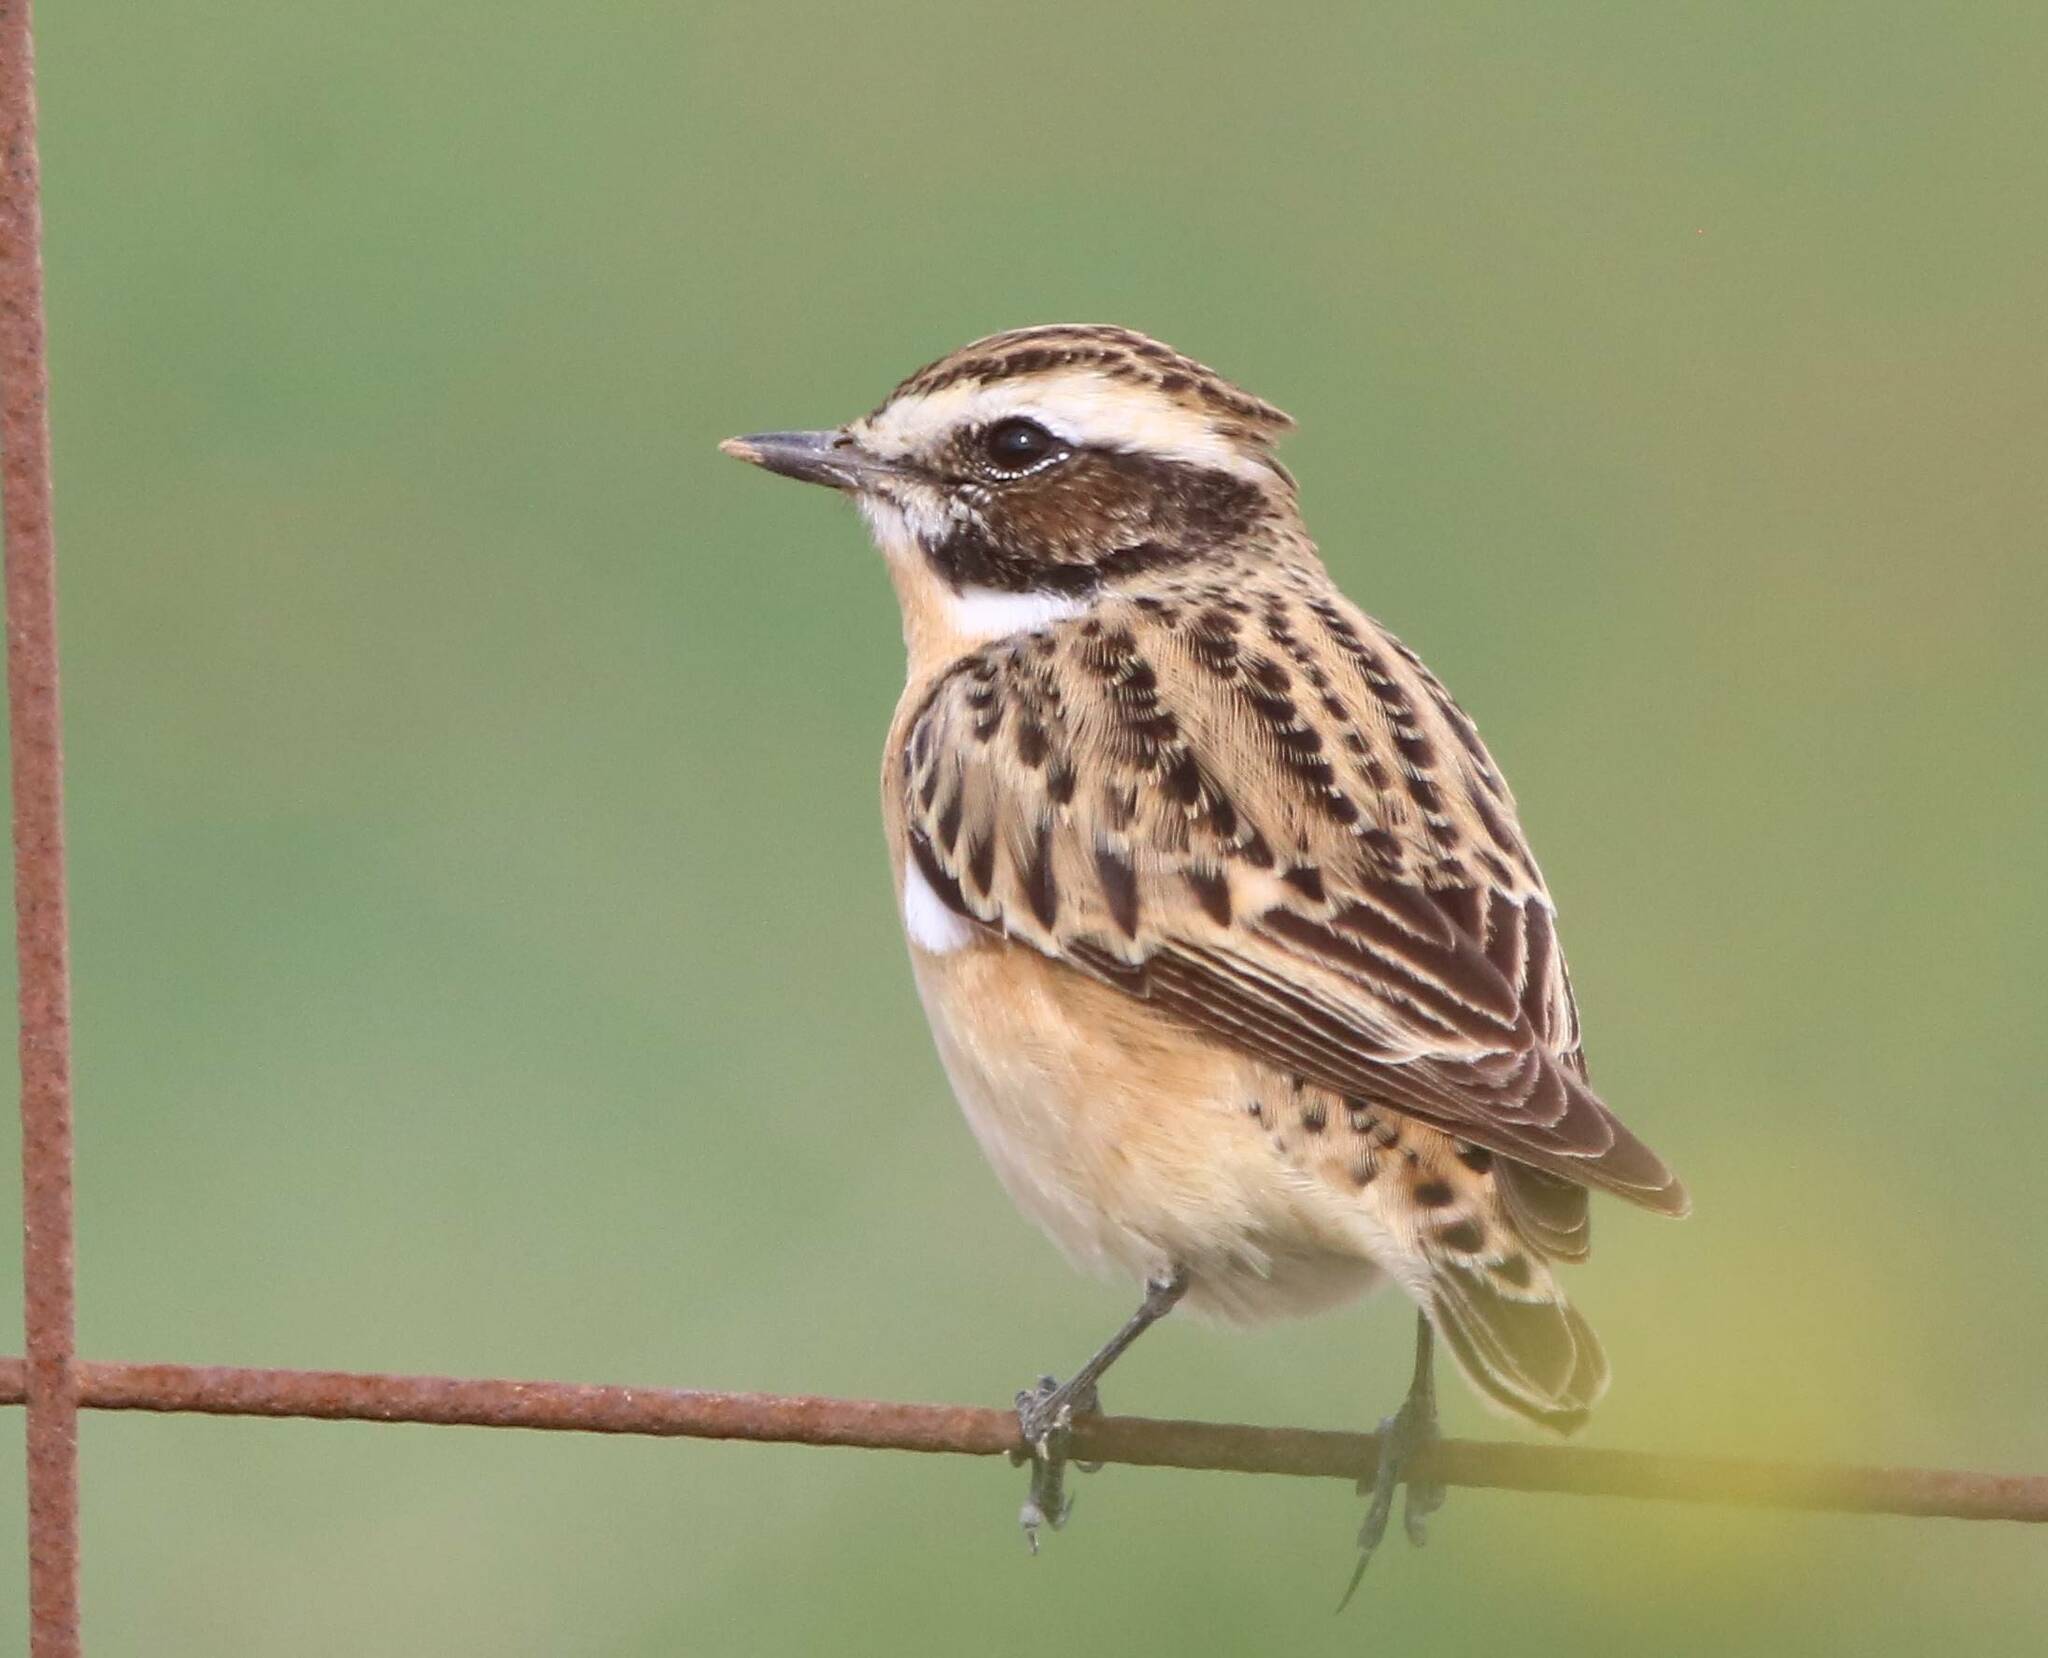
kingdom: Animalia
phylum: Chordata
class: Aves
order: Passeriformes
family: Muscicapidae
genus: Saxicola
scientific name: Saxicola rubetra
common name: Whinchat
